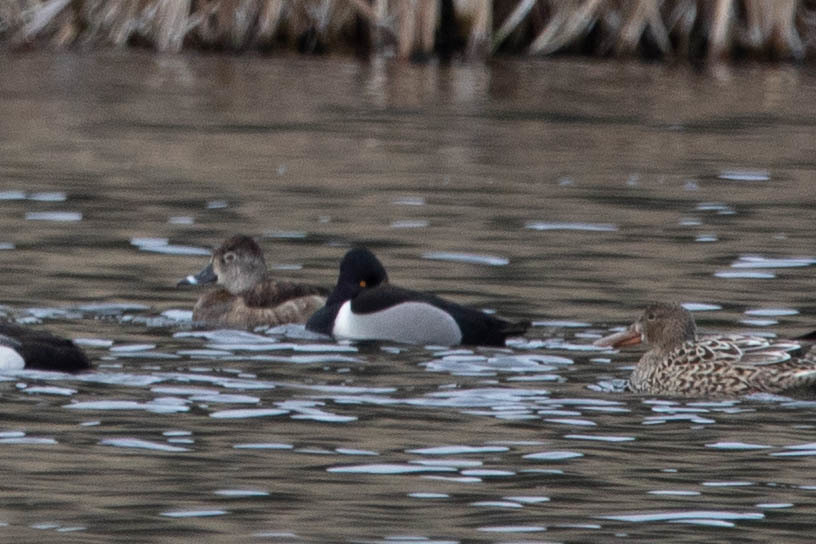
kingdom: Animalia
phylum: Chordata
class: Aves
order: Anseriformes
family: Anatidae
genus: Aythya
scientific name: Aythya collaris
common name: Ring-necked duck
